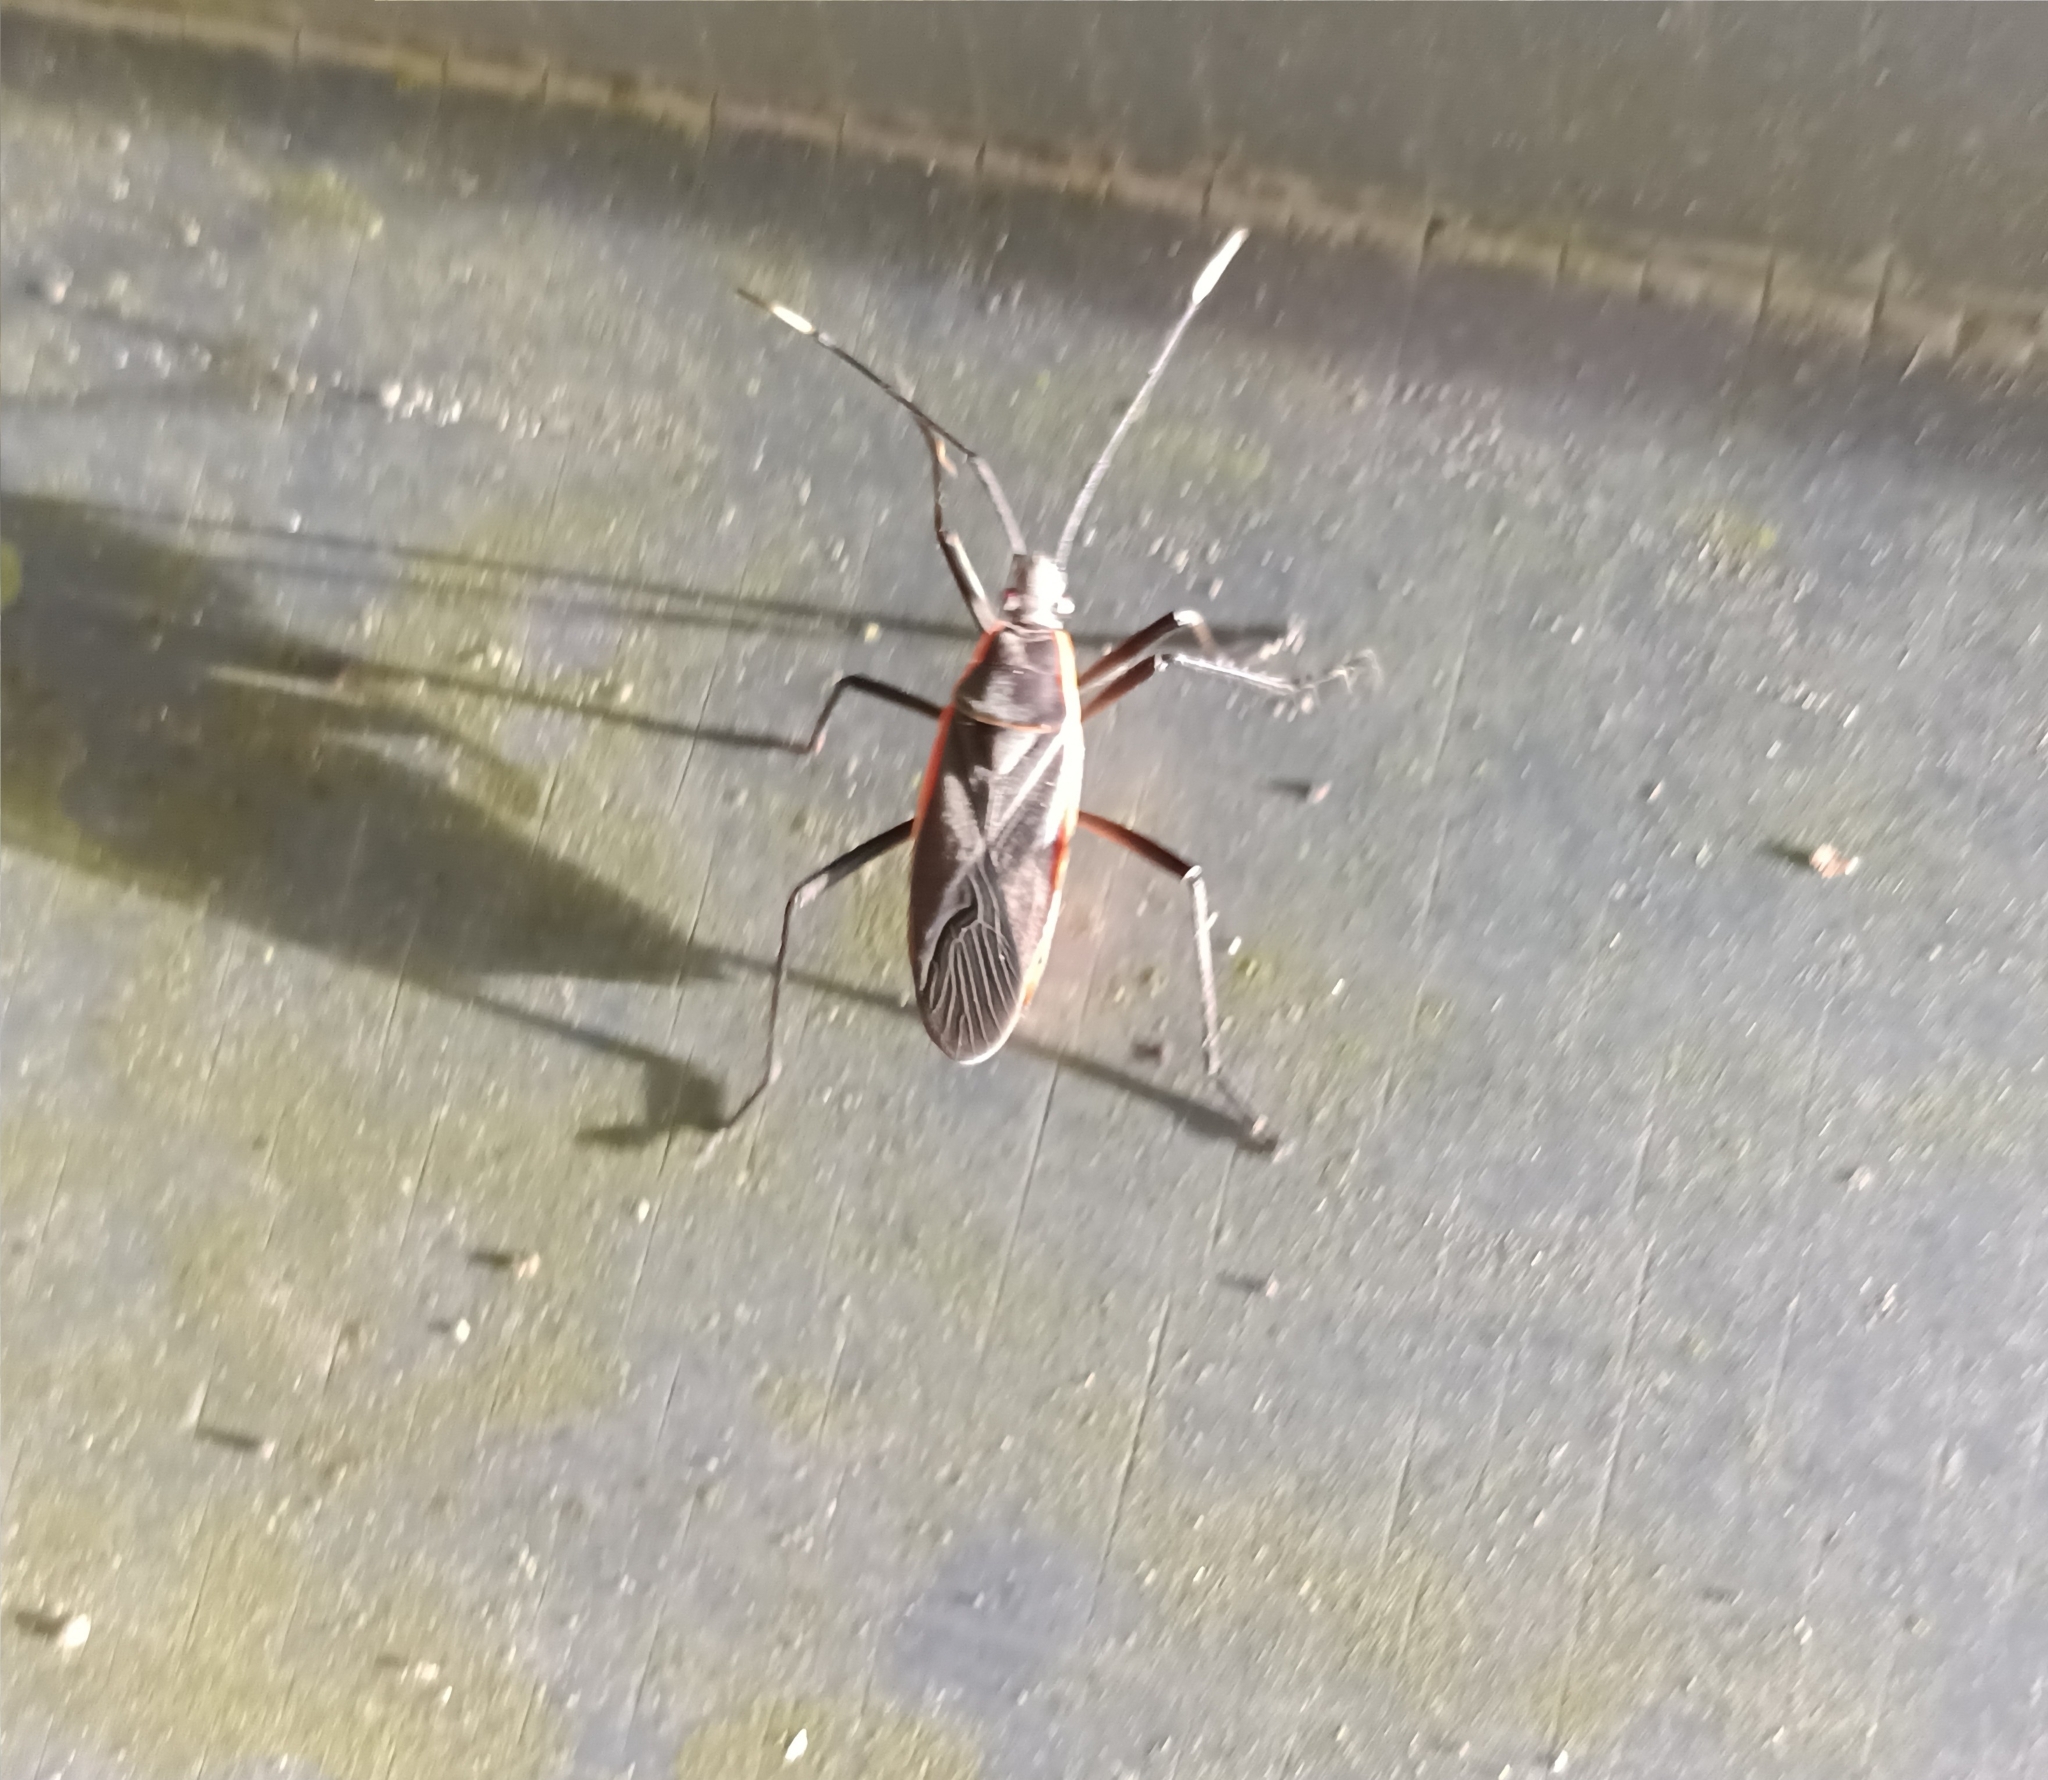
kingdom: Animalia
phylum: Arthropoda
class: Insecta
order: Hemiptera
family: Pyrrhocoridae
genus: Melamphaus
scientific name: Melamphaus
